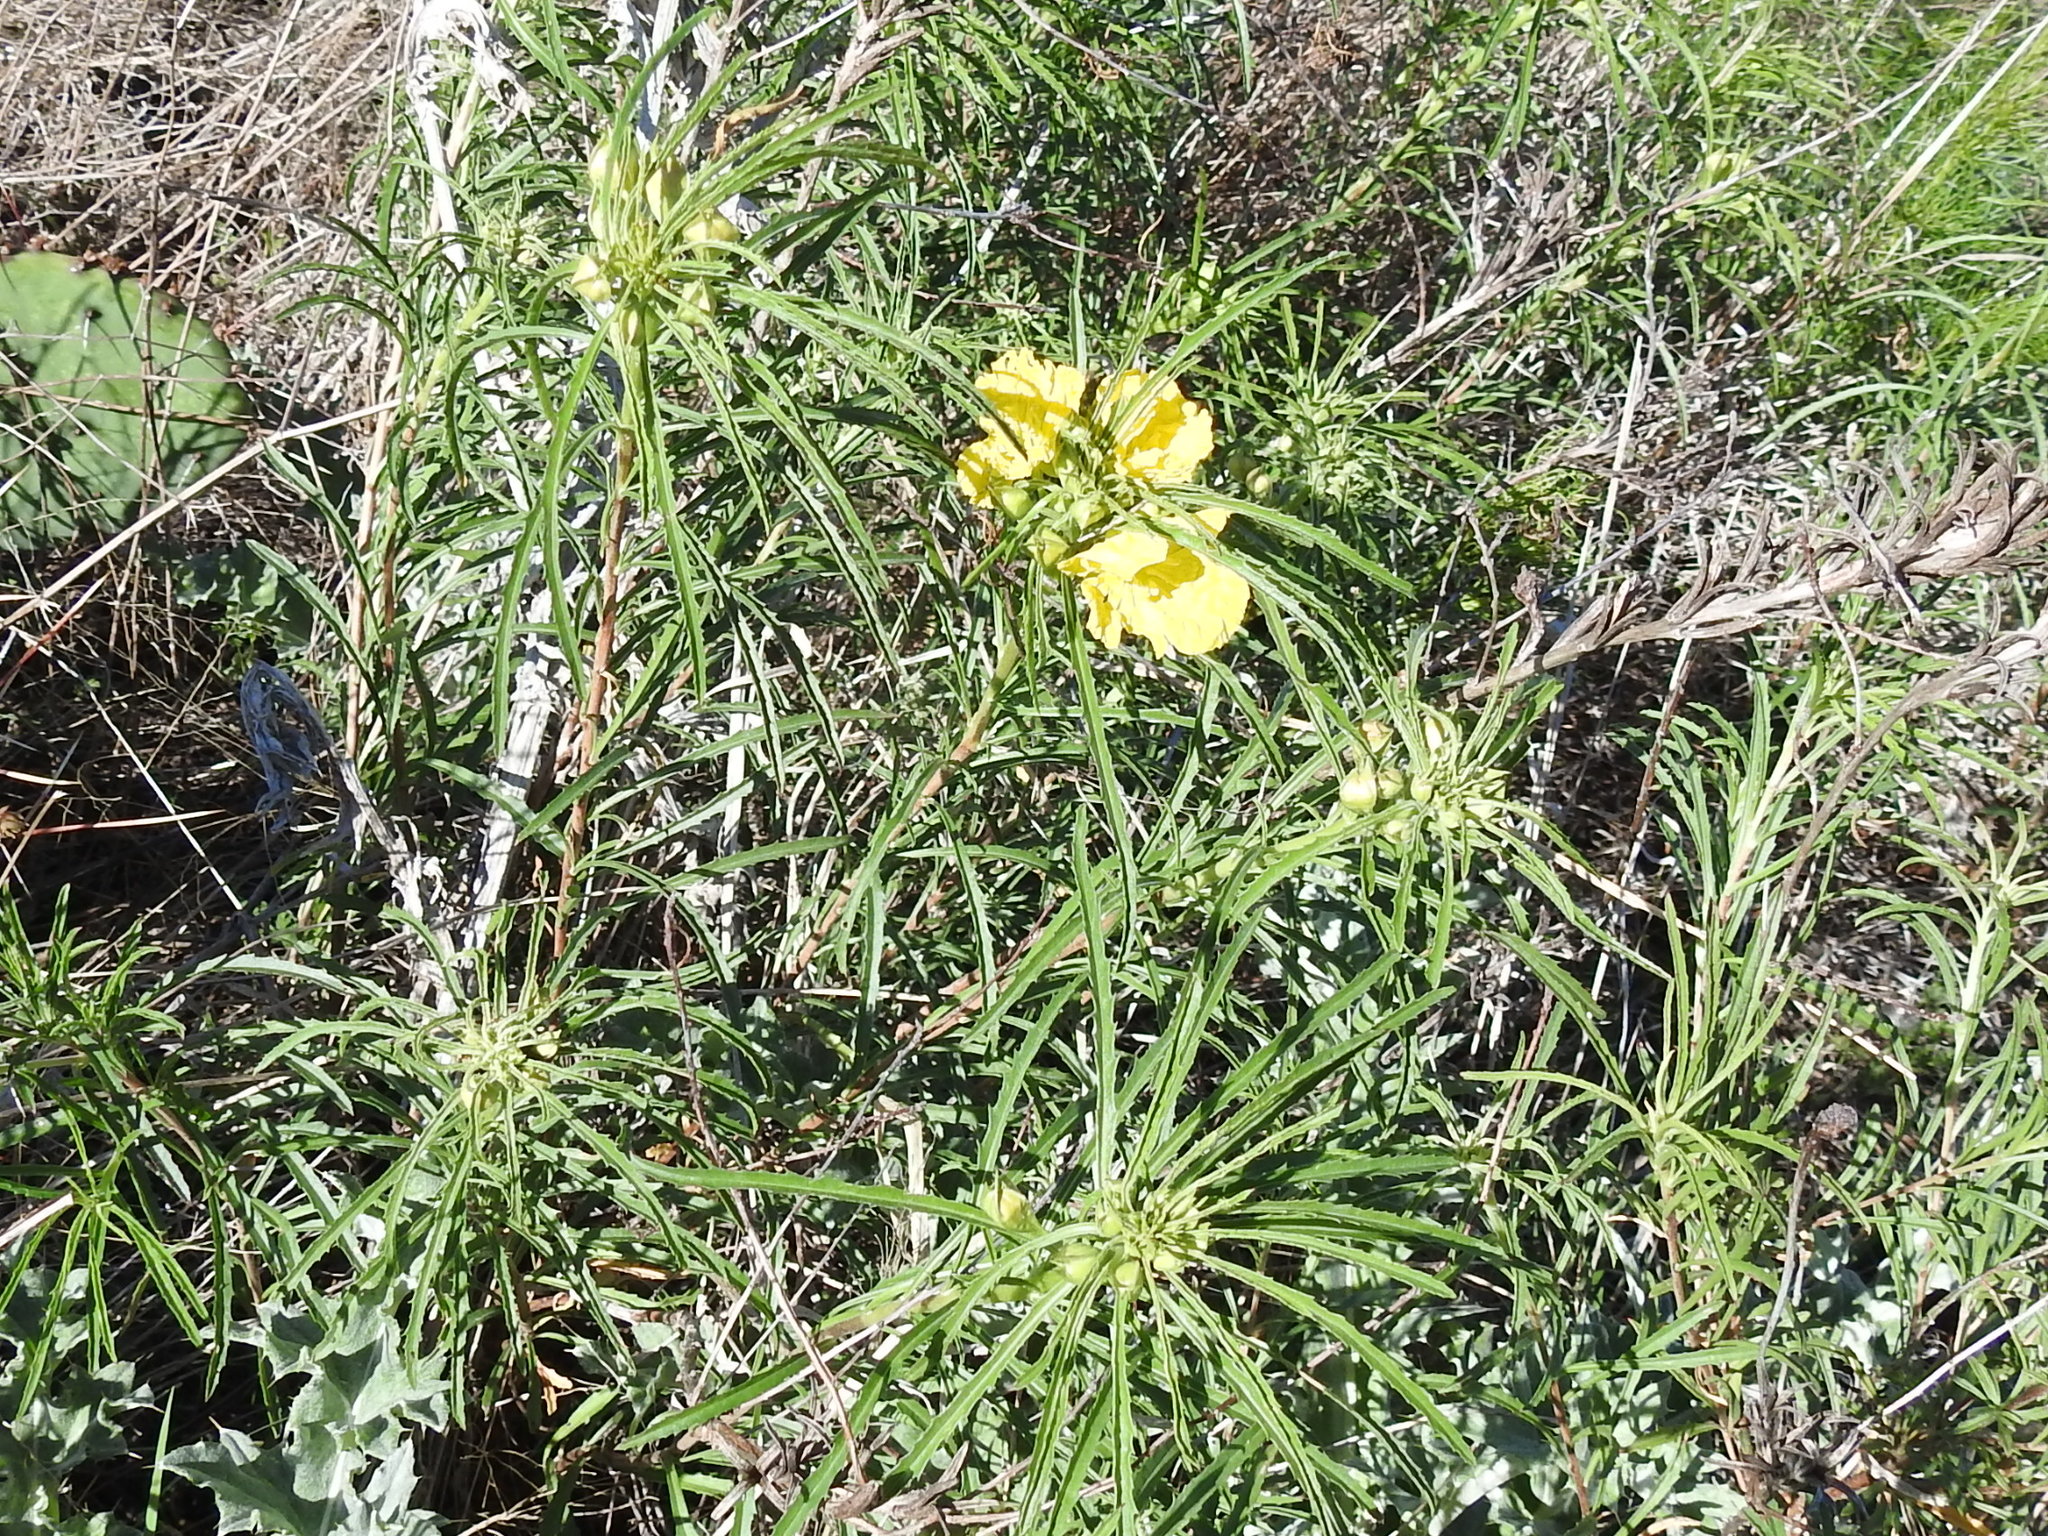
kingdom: Plantae
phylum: Tracheophyta
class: Magnoliopsida
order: Myrtales
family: Onagraceae
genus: Oenothera
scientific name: Oenothera
